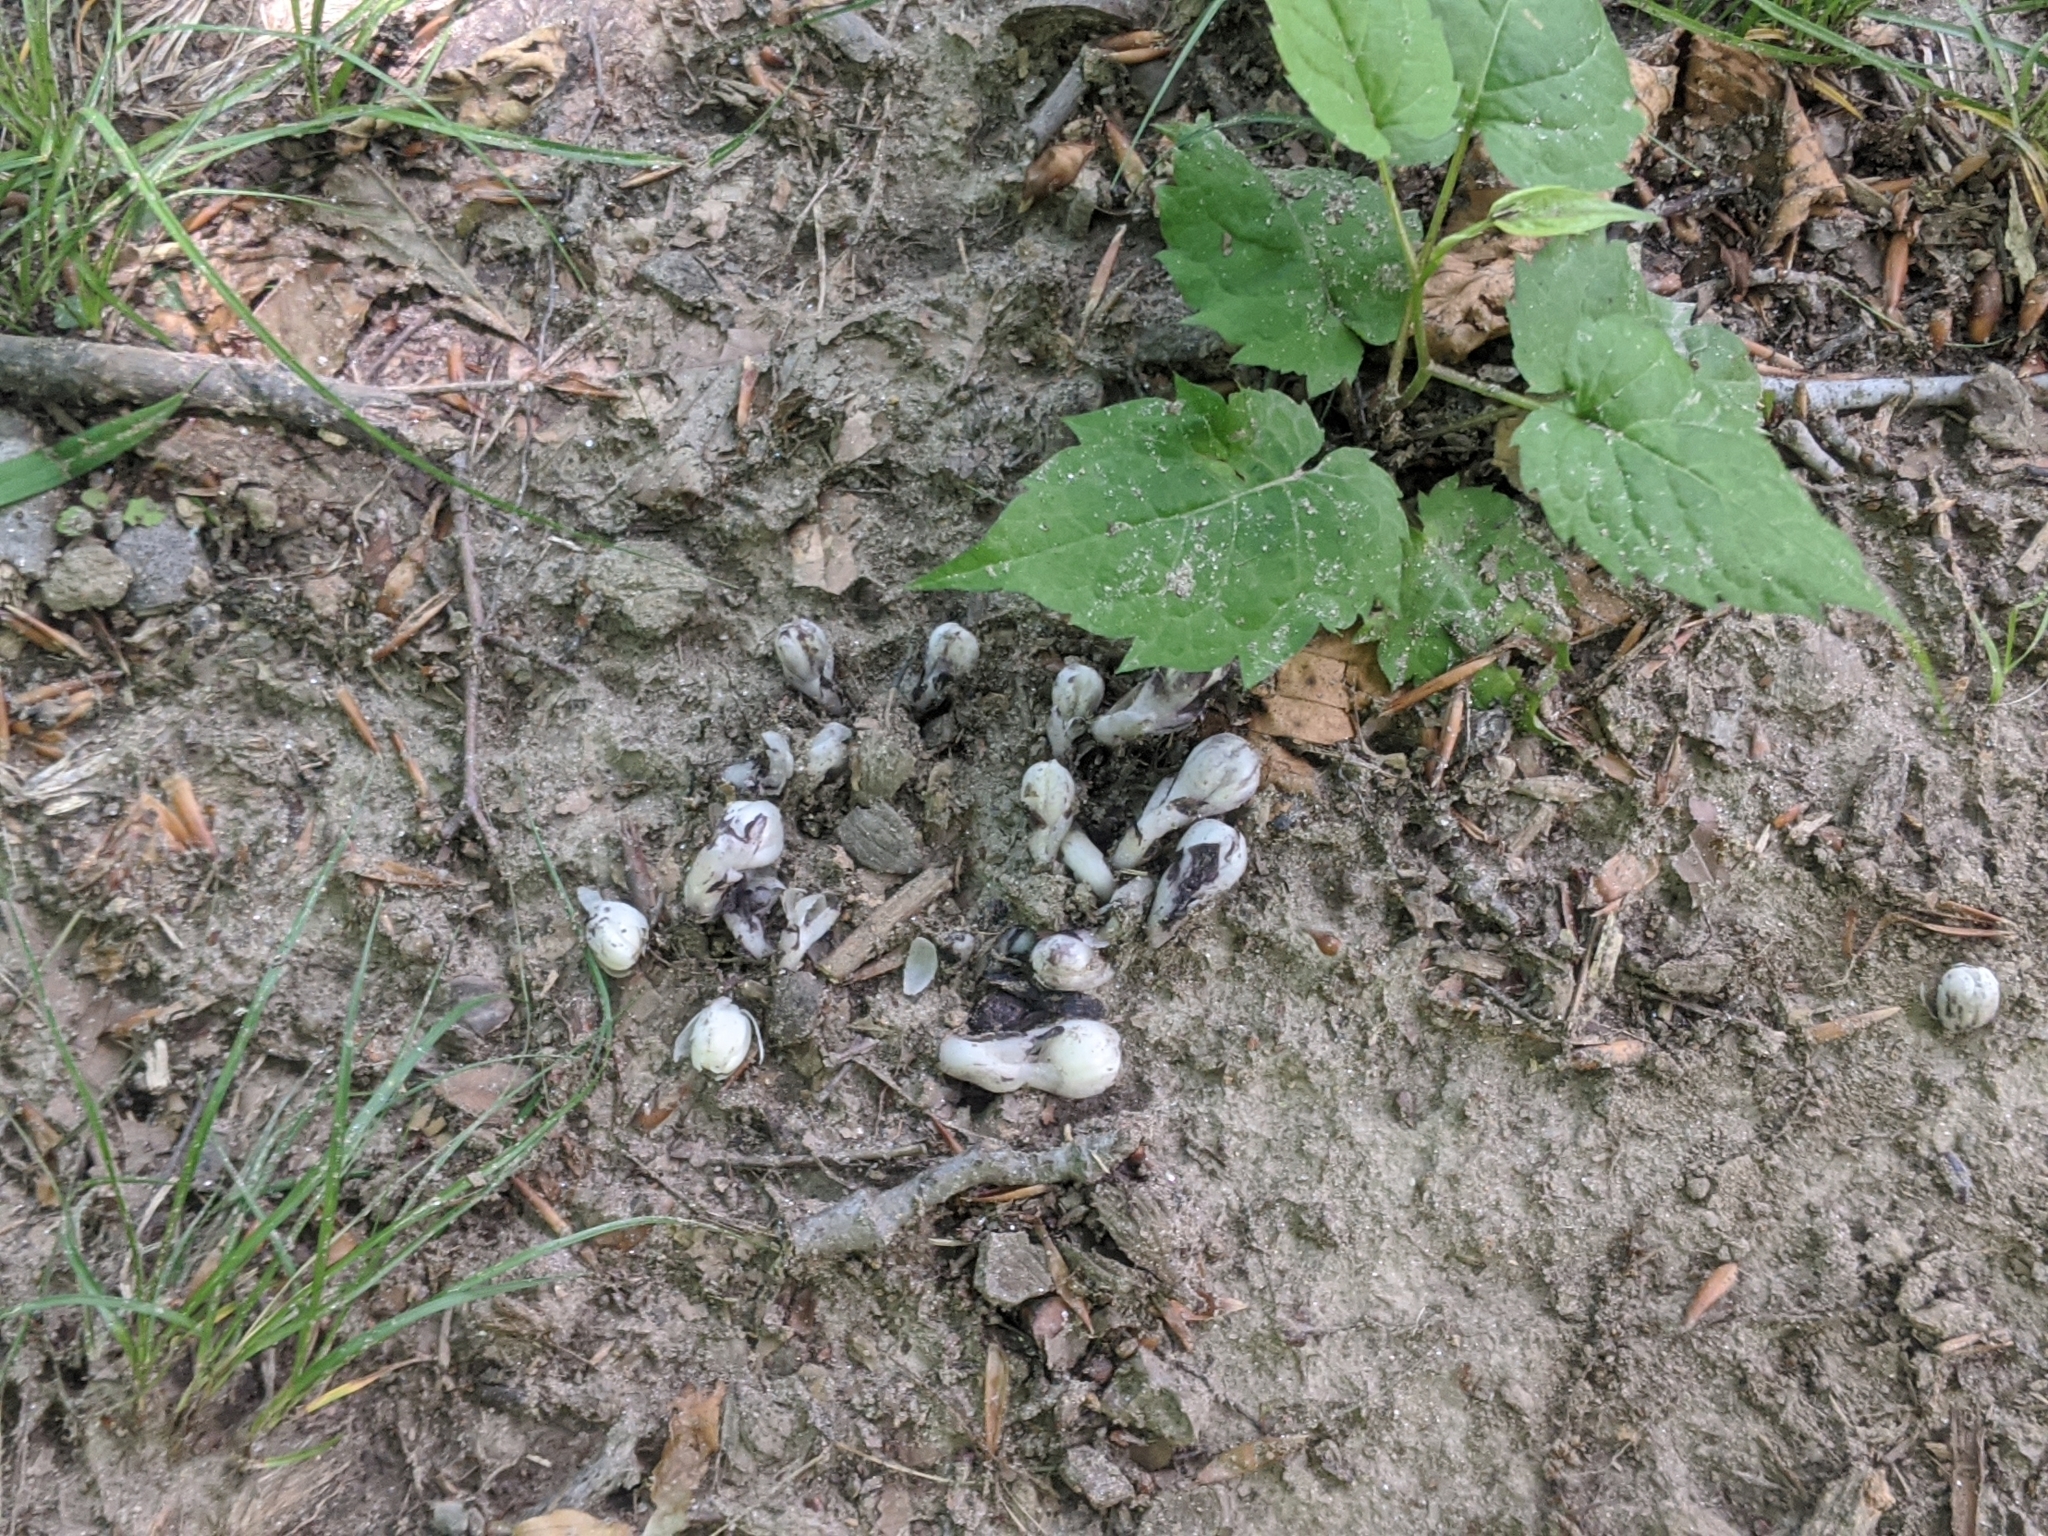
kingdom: Plantae
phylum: Tracheophyta
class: Magnoliopsida
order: Ericales
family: Ericaceae
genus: Monotropa
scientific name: Monotropa uniflora
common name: Convulsion root
